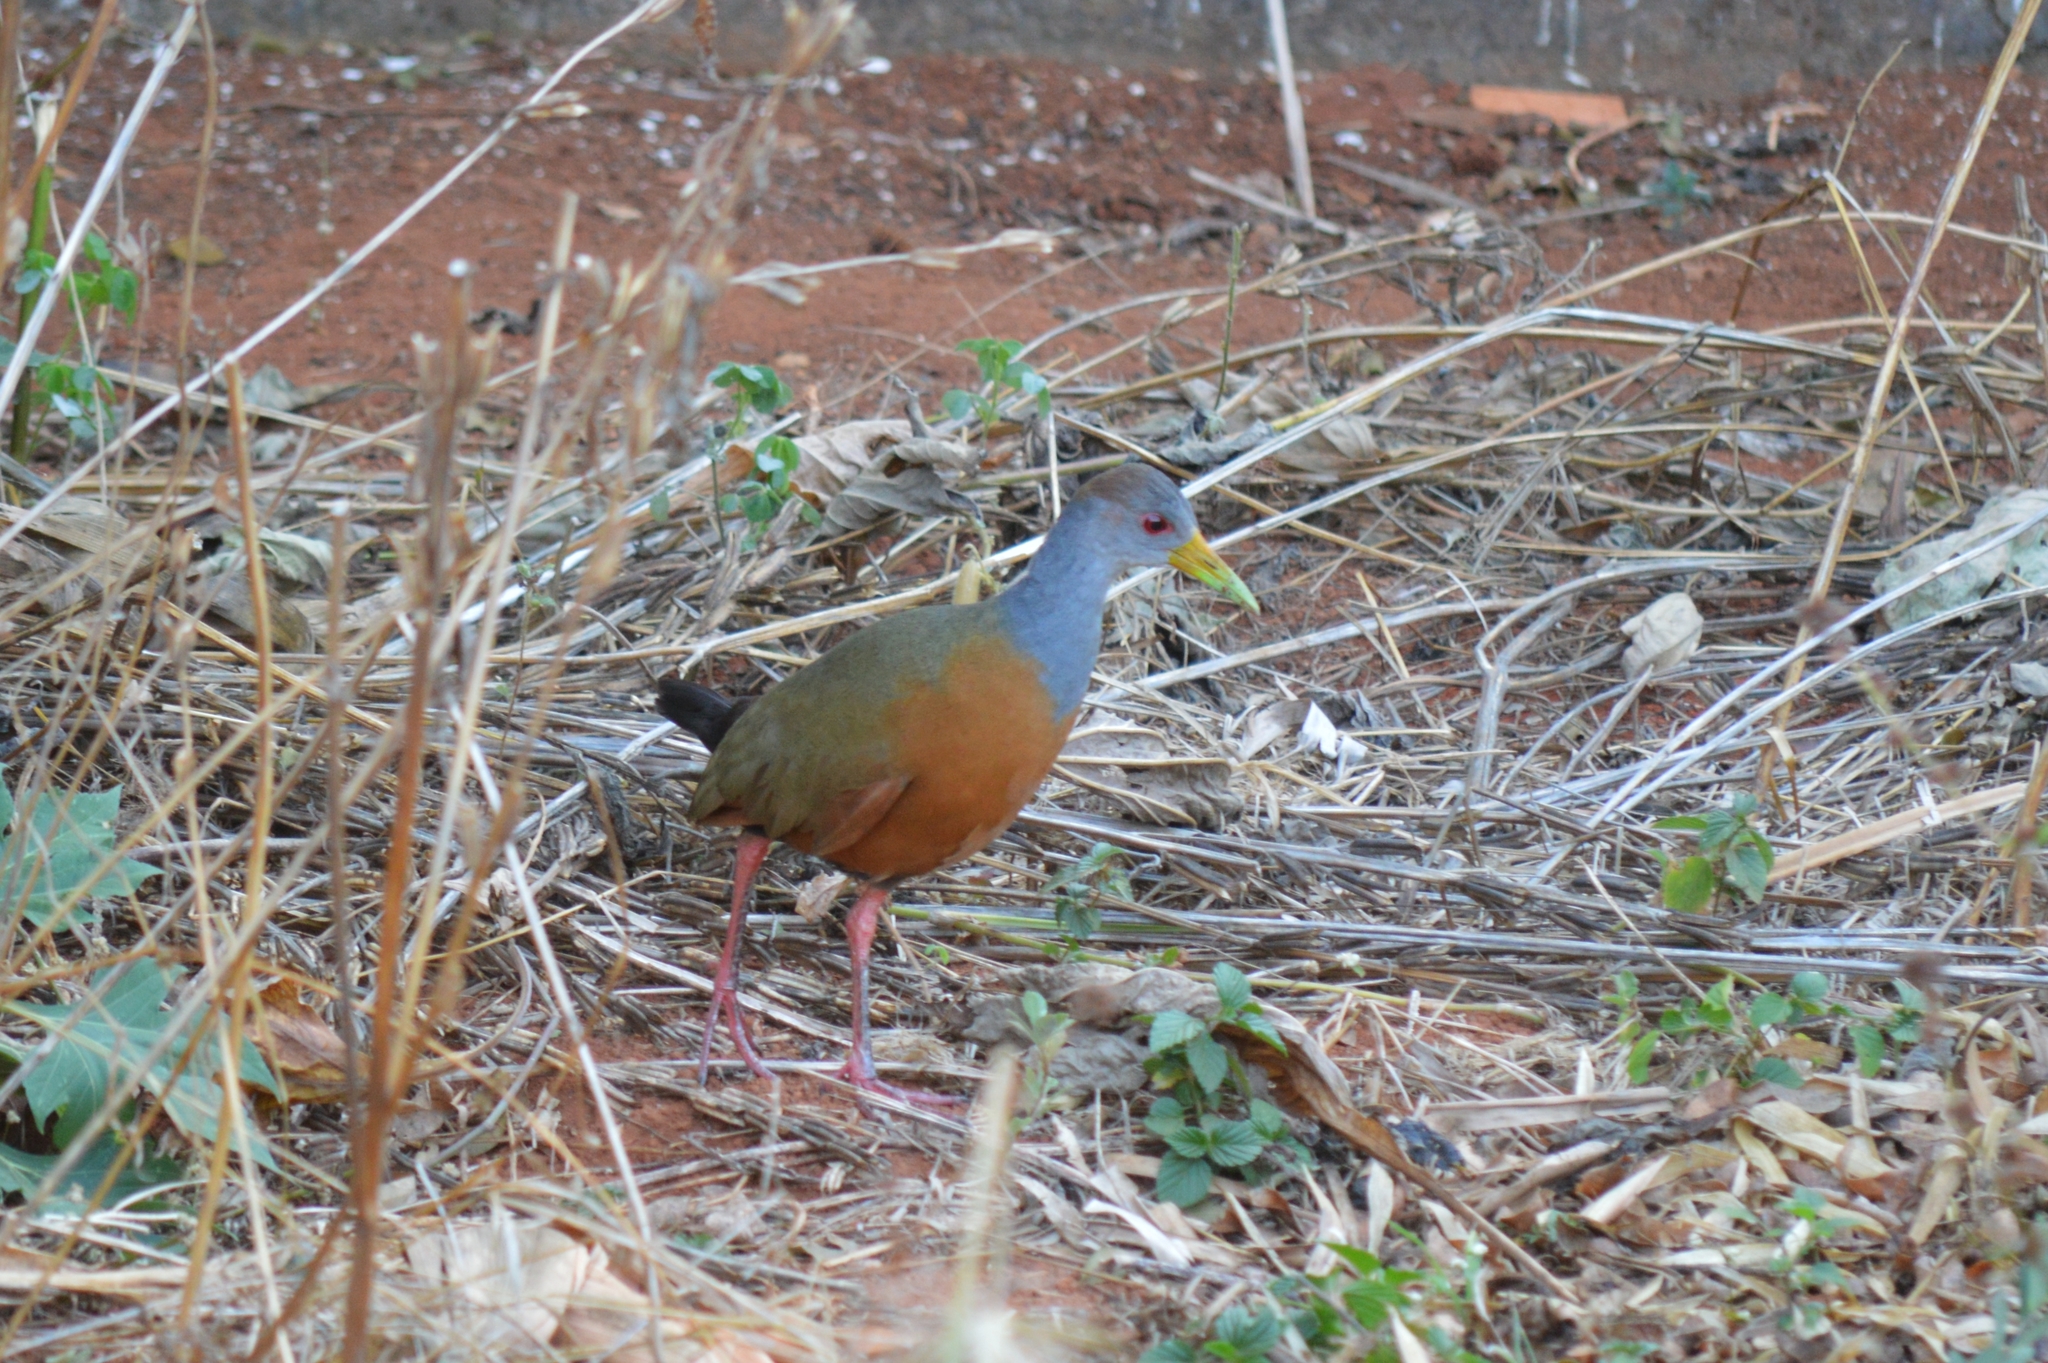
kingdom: Animalia
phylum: Chordata
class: Aves
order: Gruiformes
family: Rallidae
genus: Aramides
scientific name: Aramides cajanea
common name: Gray-necked wood-rail
